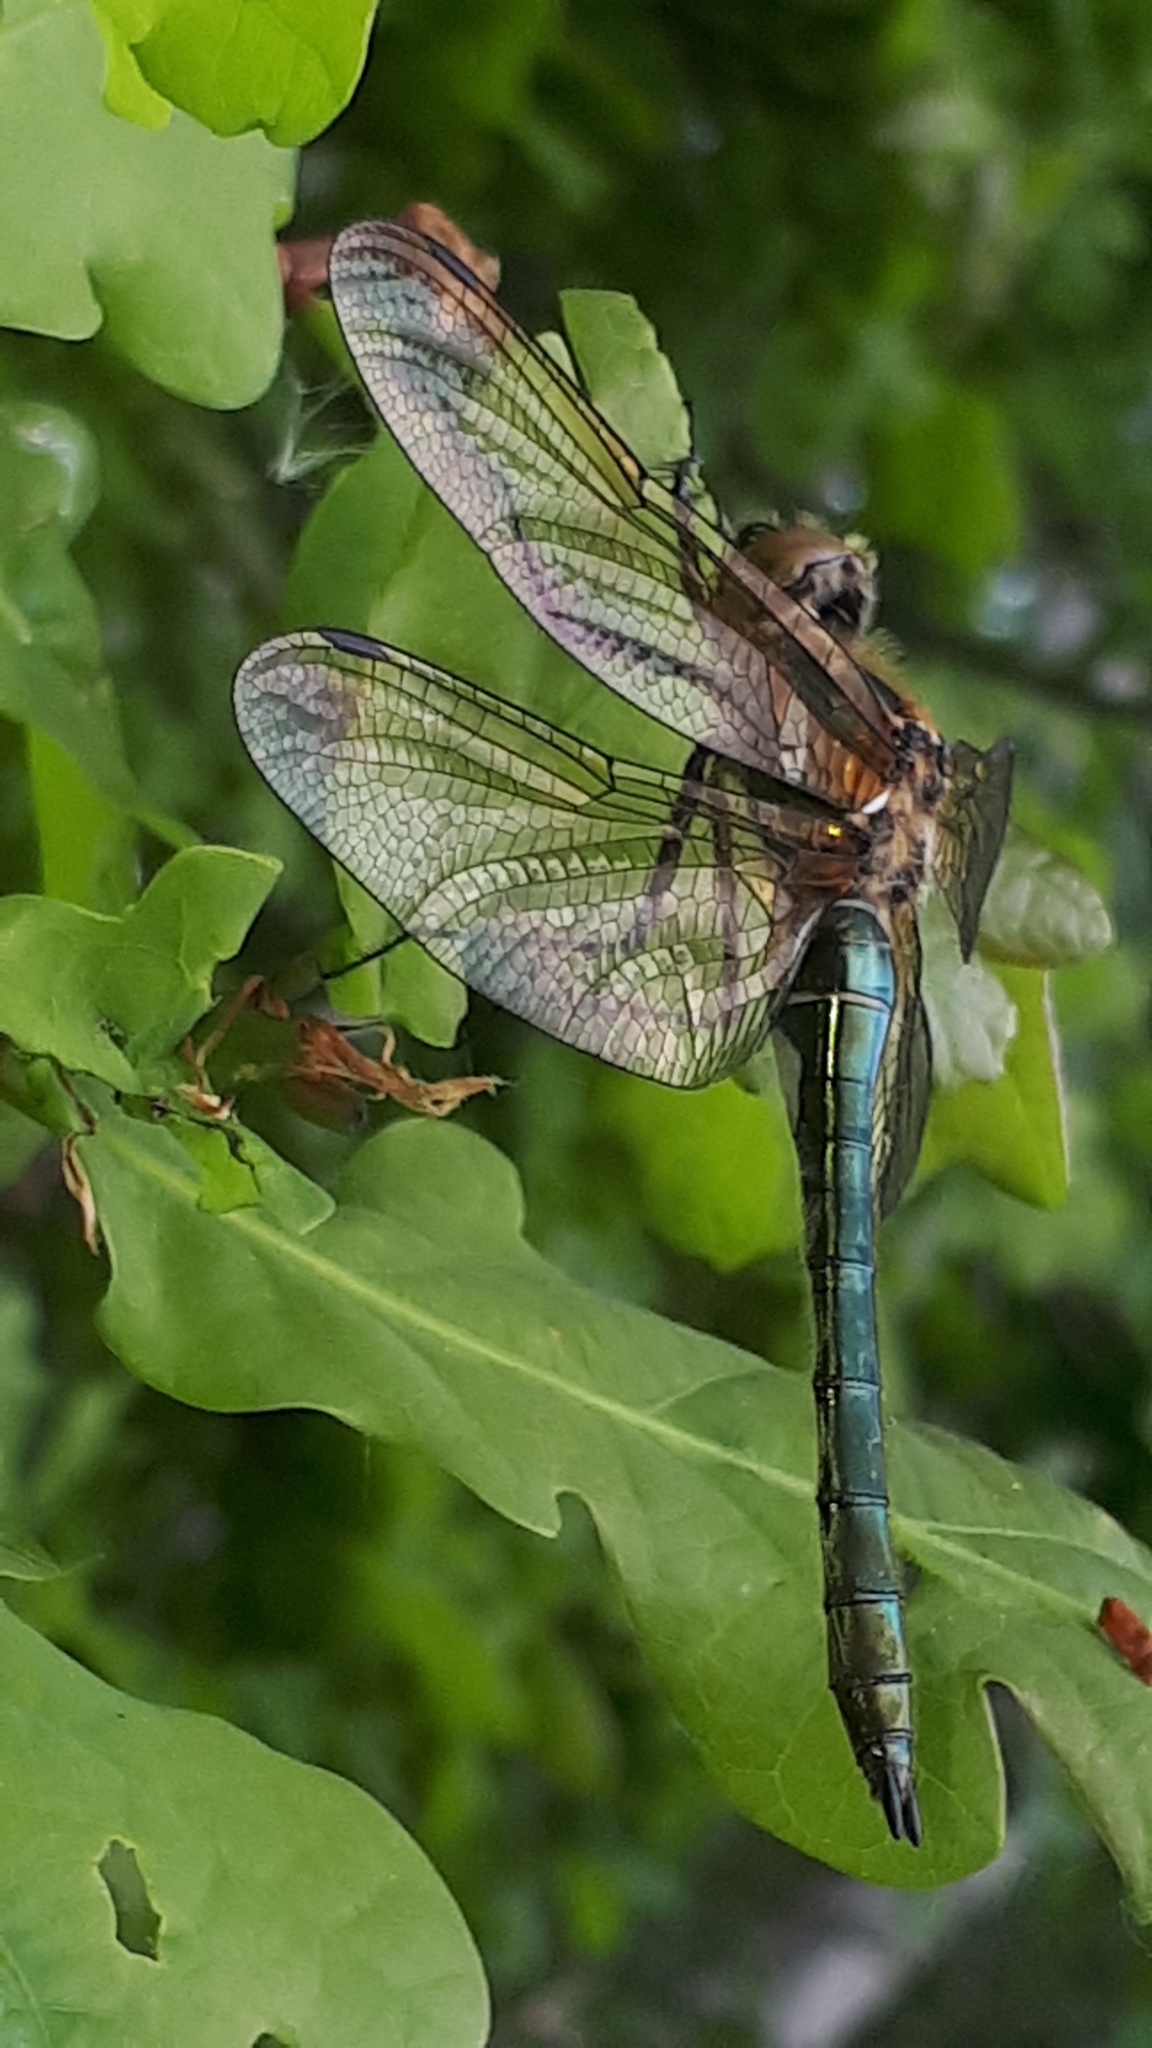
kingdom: Animalia
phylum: Arthropoda
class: Insecta
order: Odonata
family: Corduliidae
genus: Cordulia
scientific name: Cordulia aenea
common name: Downy emerald
